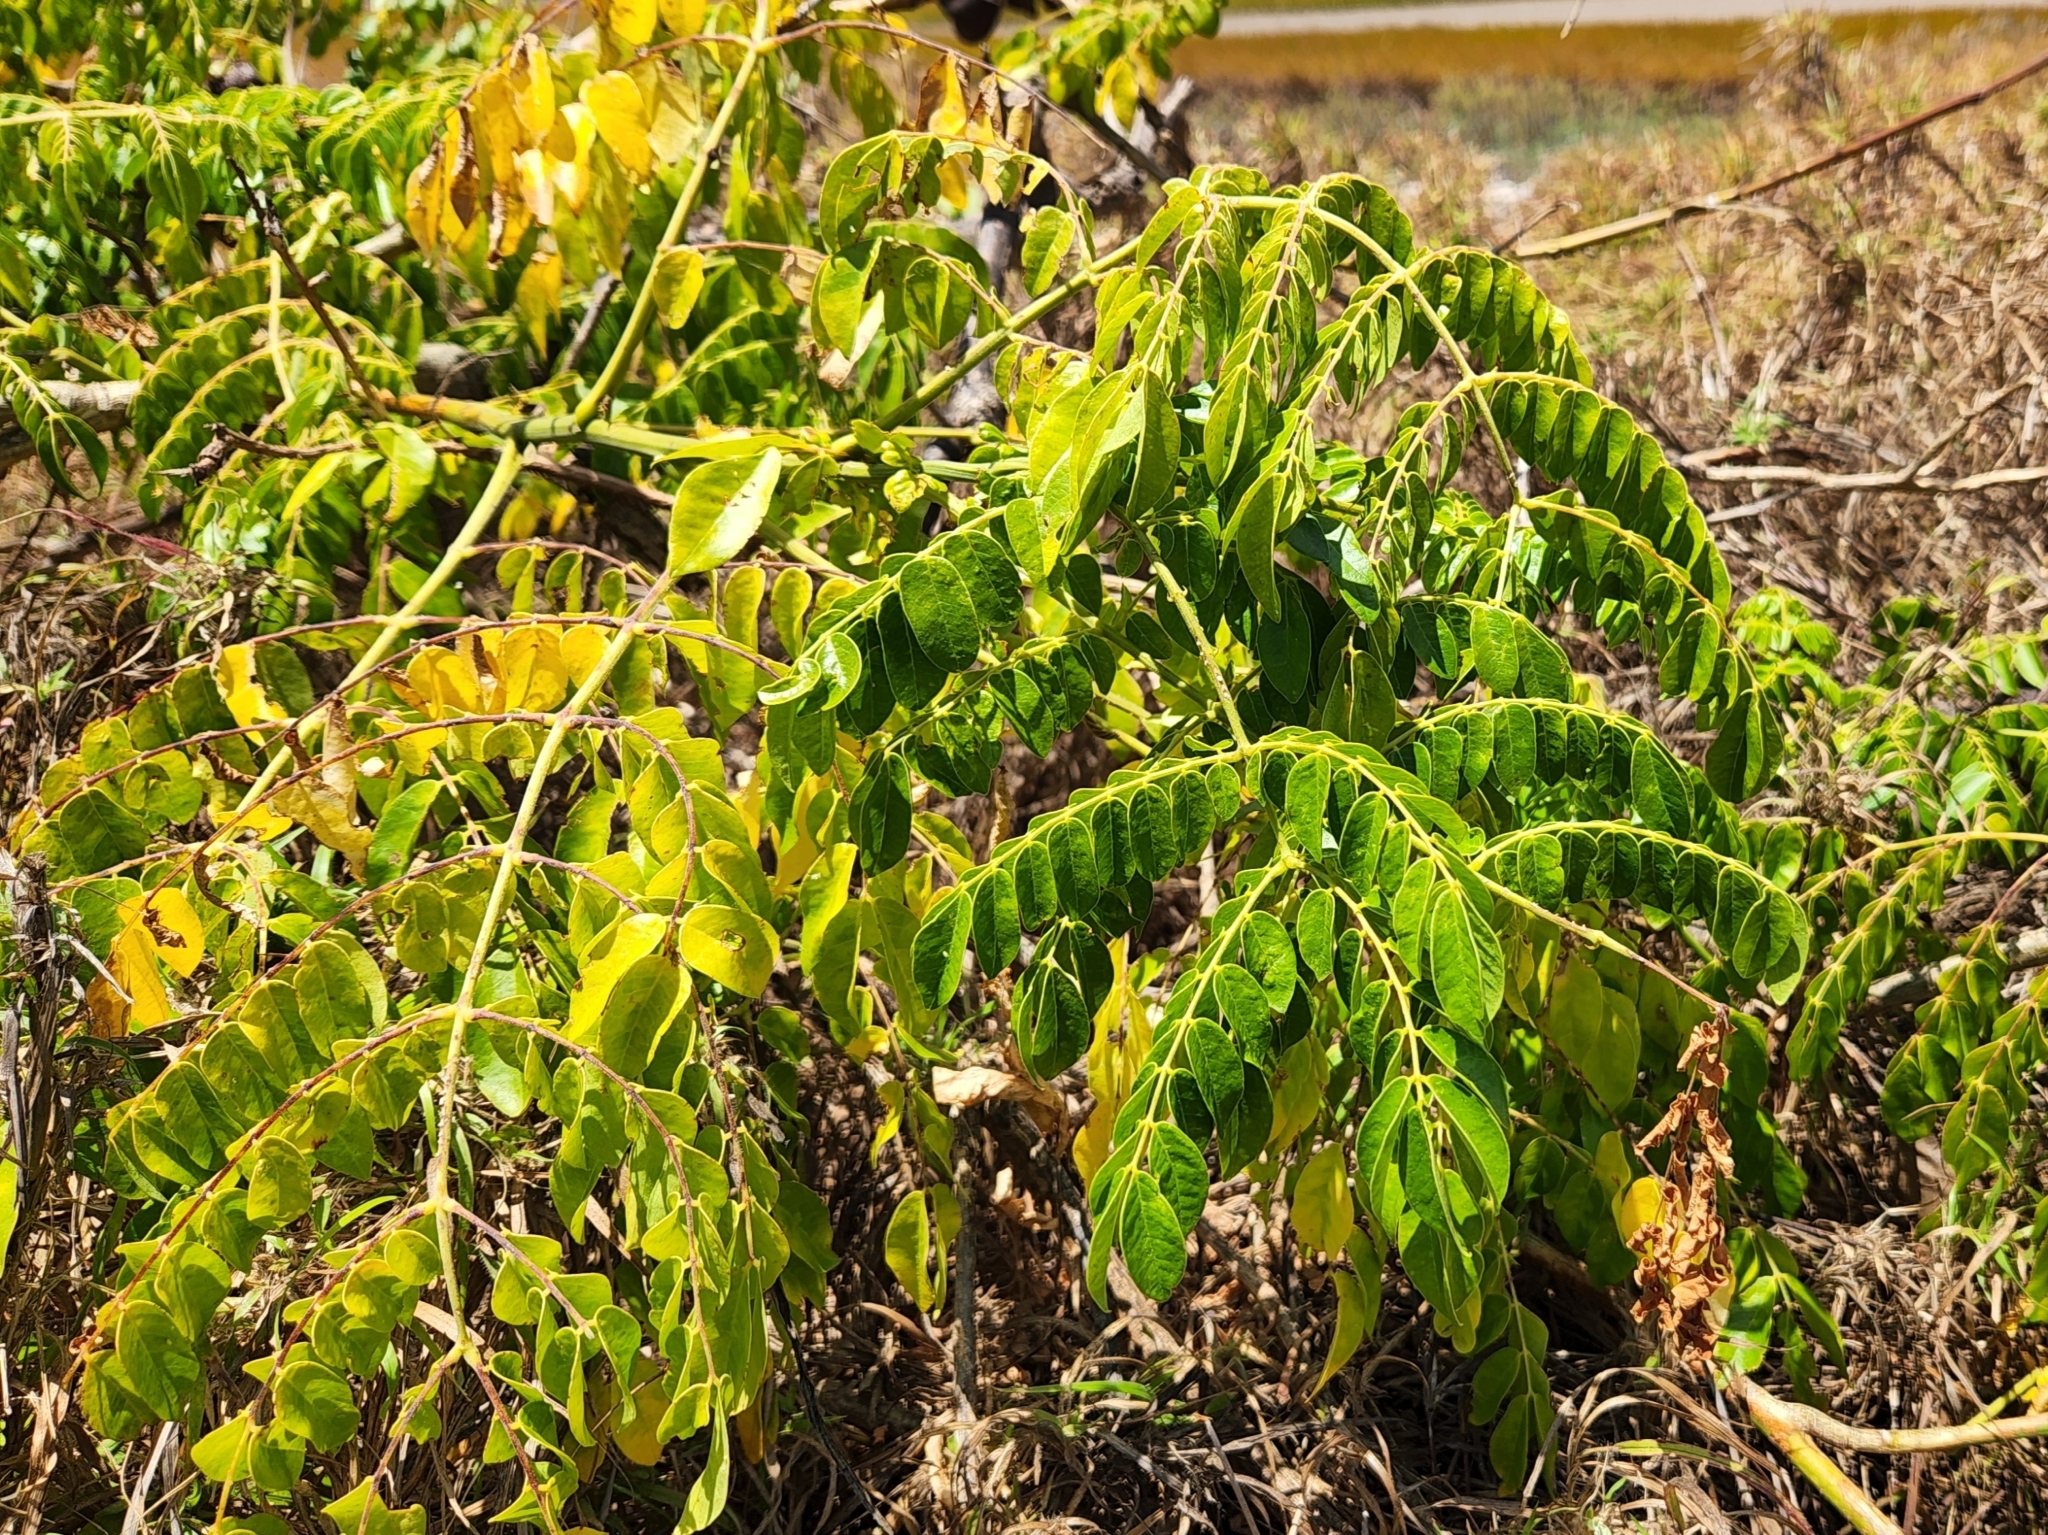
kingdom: Plantae
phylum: Tracheophyta
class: Magnoliopsida
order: Fabales
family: Fabaceae
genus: Guilandina
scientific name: Guilandina bonduc
